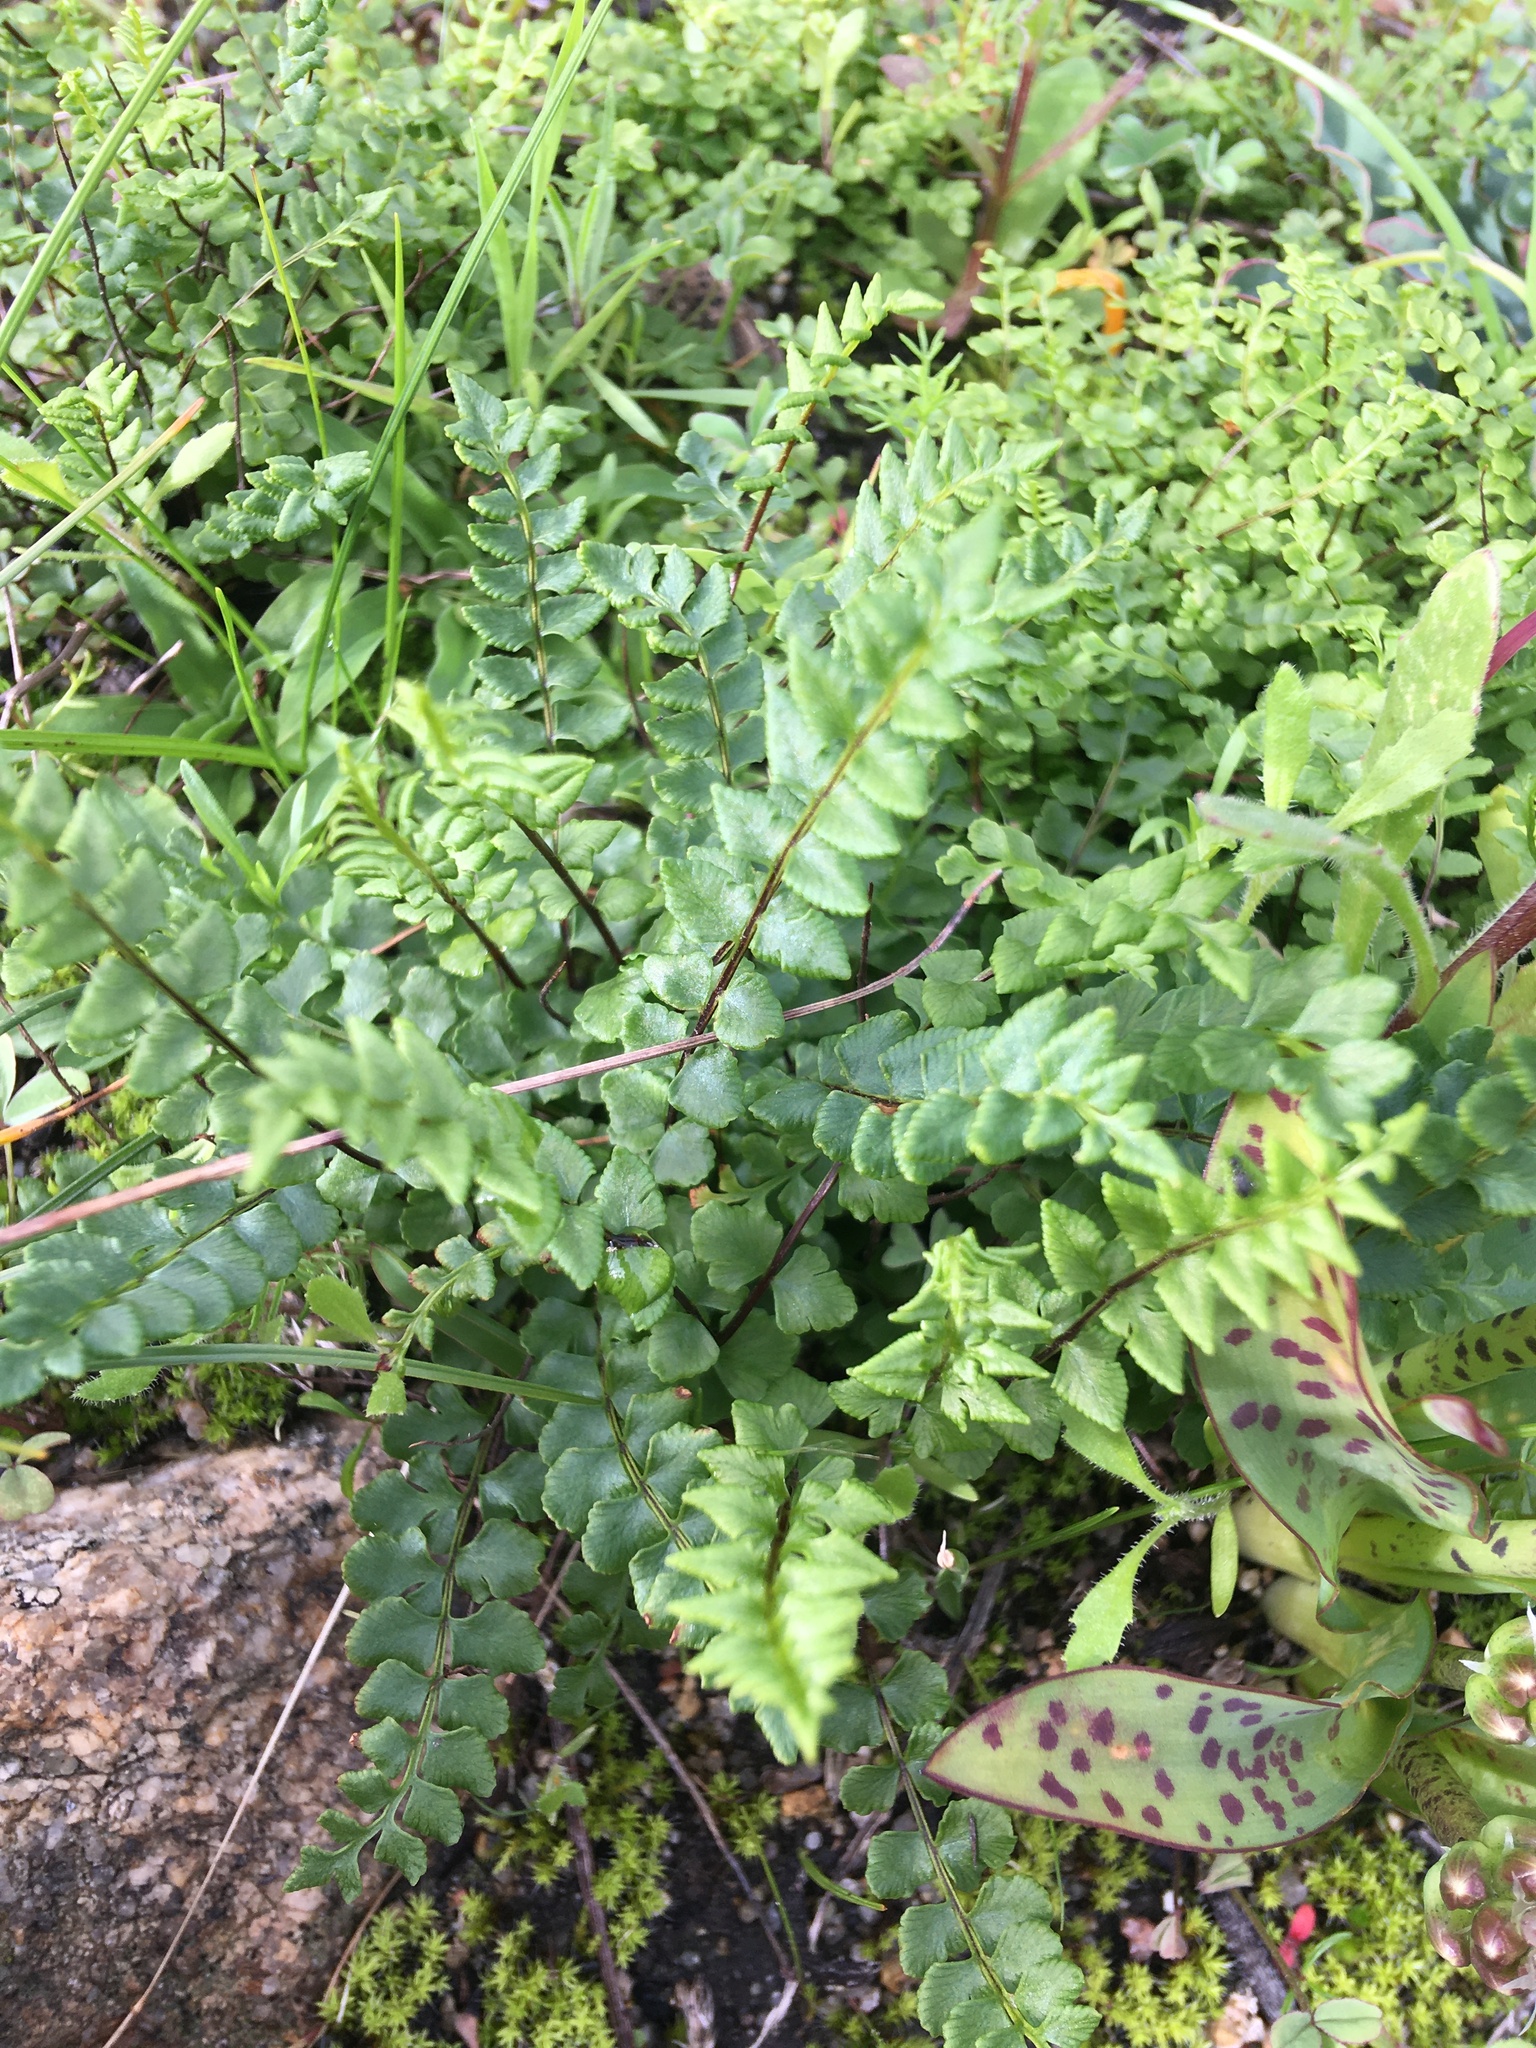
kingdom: Plantae
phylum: Tracheophyta
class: Polypodiopsida
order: Polypodiales
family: Pteridaceae
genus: Cheilanthes
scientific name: Cheilanthes hastata
